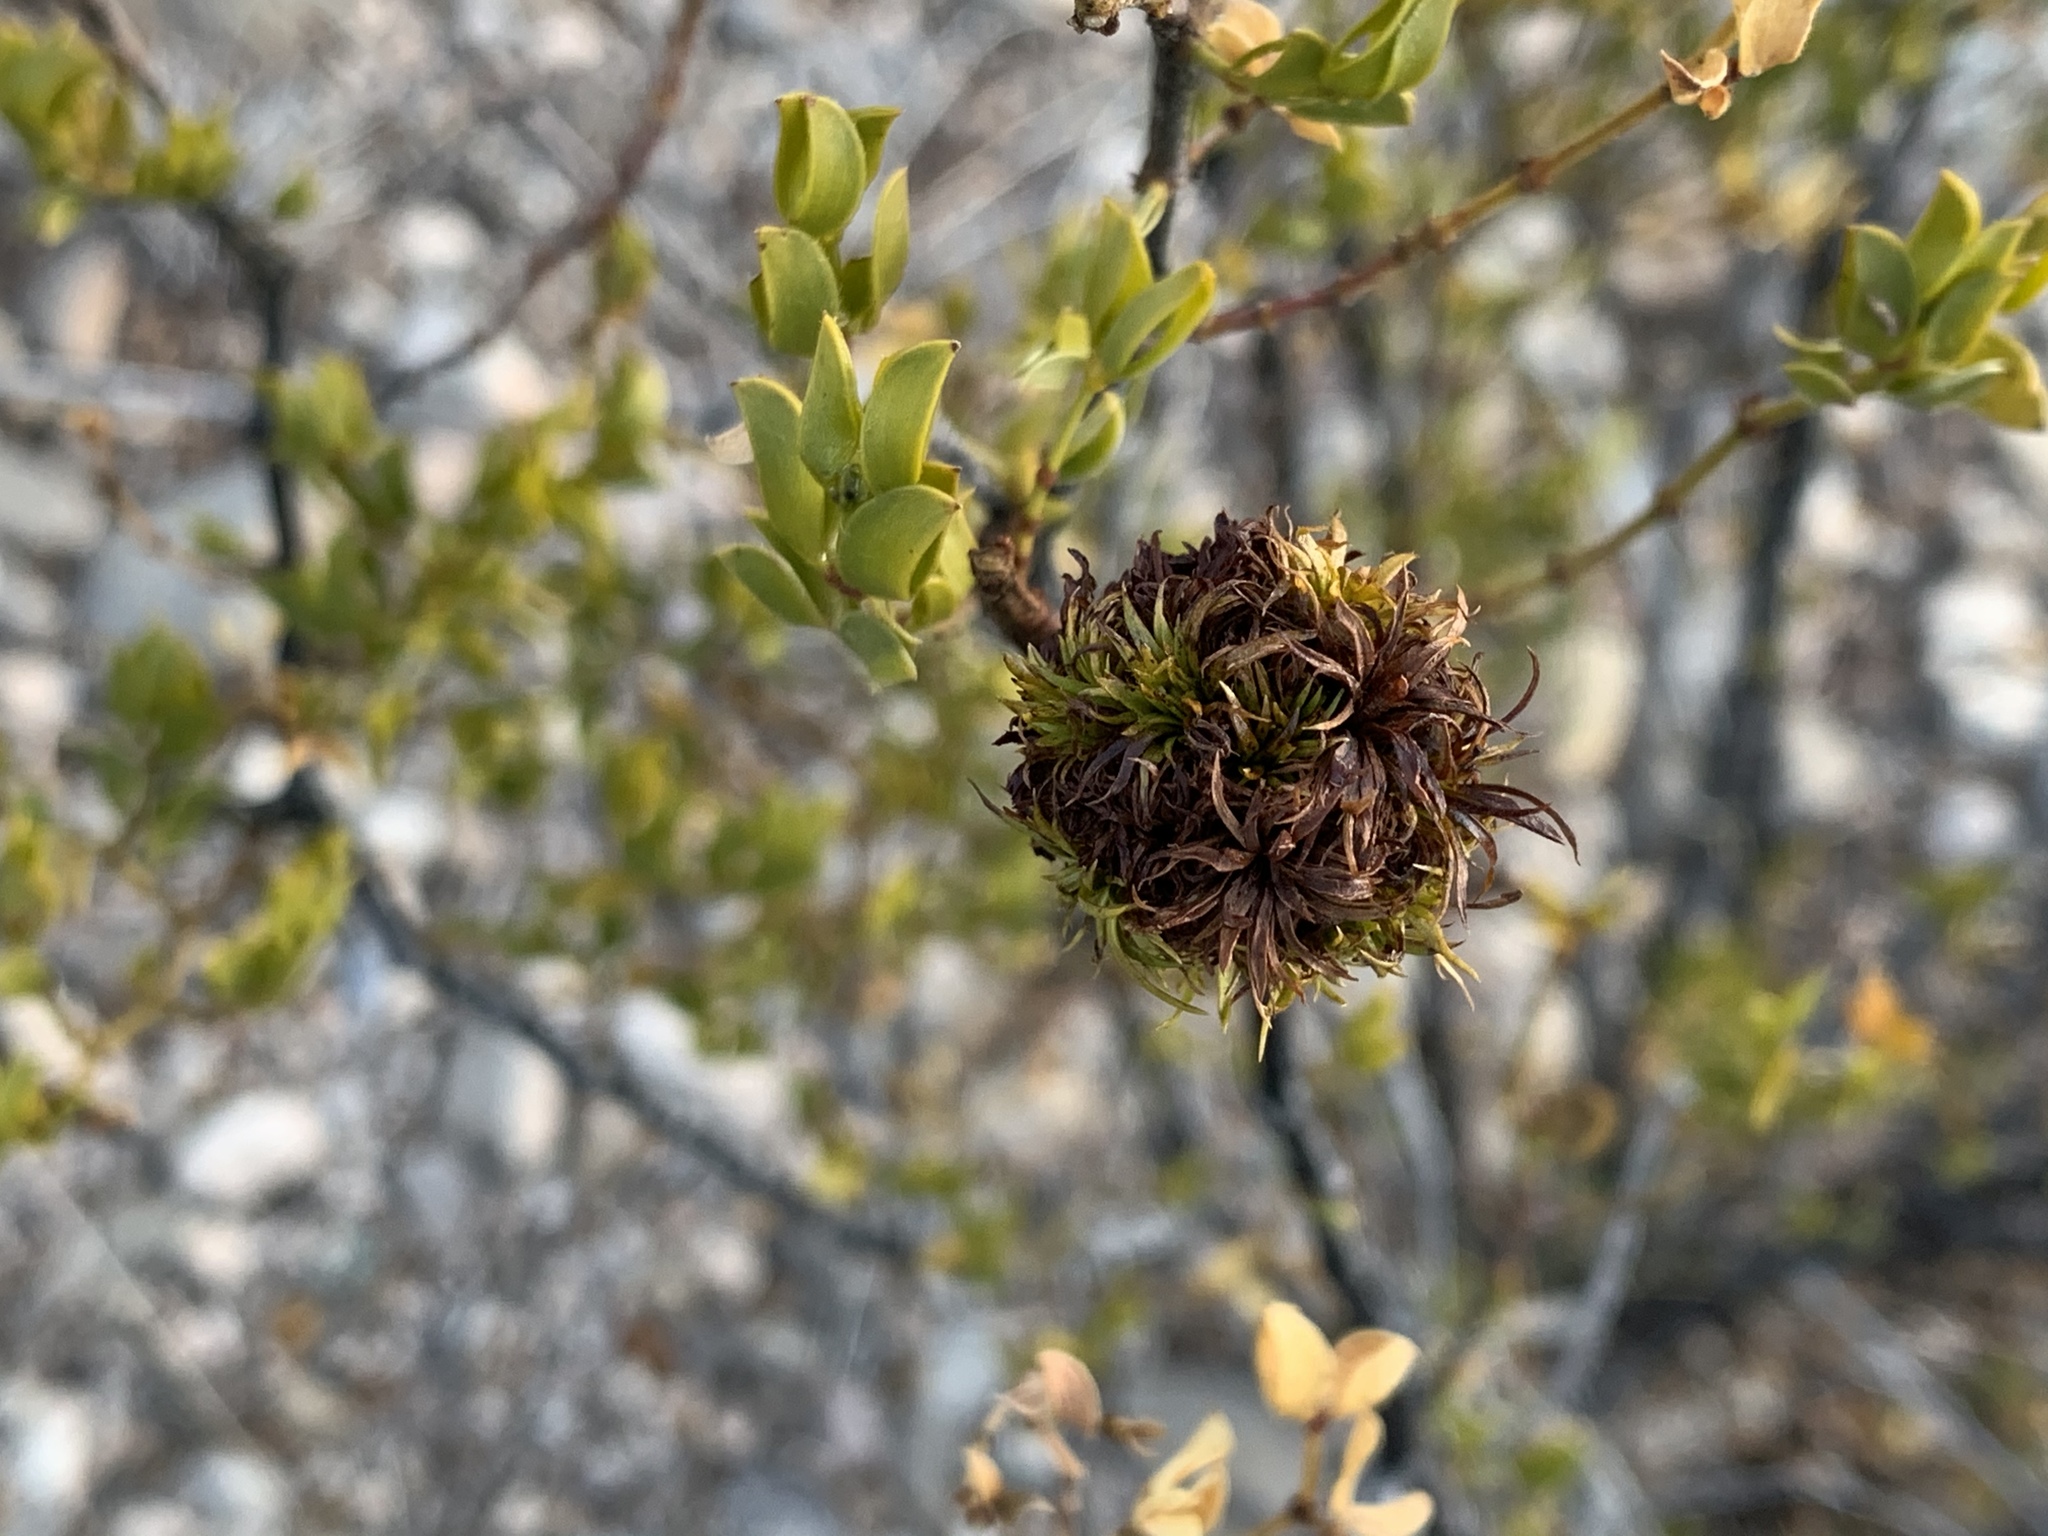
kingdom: Animalia
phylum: Arthropoda
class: Insecta
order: Diptera
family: Cecidomyiidae
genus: Asphondylia
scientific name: Asphondylia auripila
